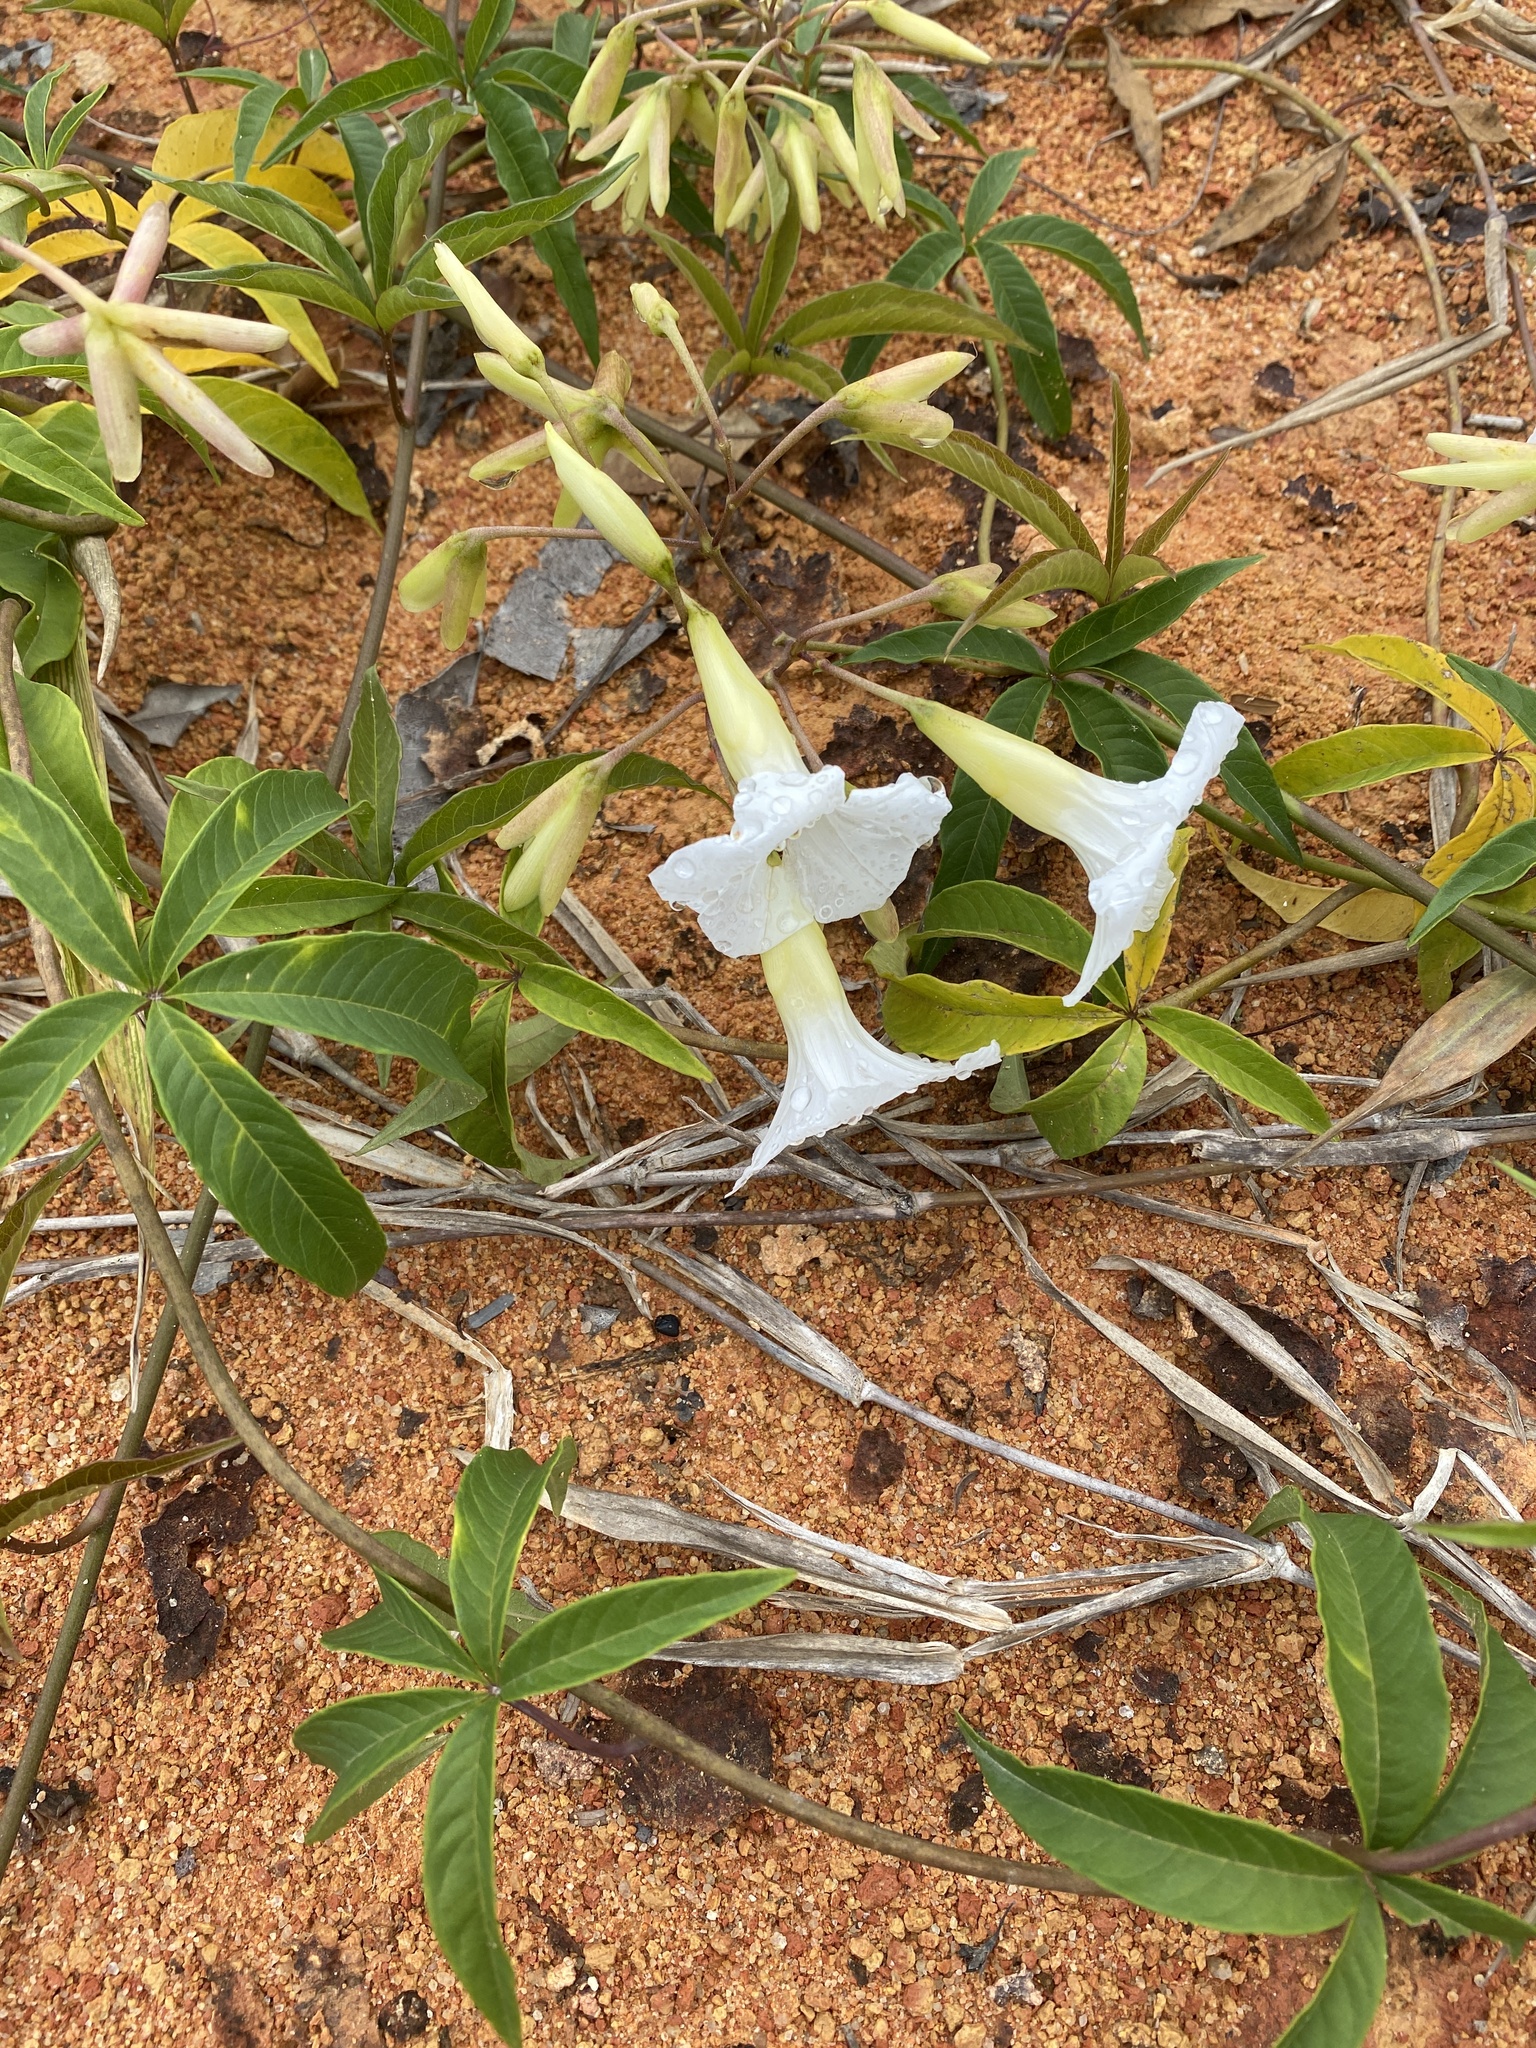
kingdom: Plantae
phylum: Tracheophyta
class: Magnoliopsida
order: Solanales
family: Convolvulaceae
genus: Distimake
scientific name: Distimake macrocalyx
